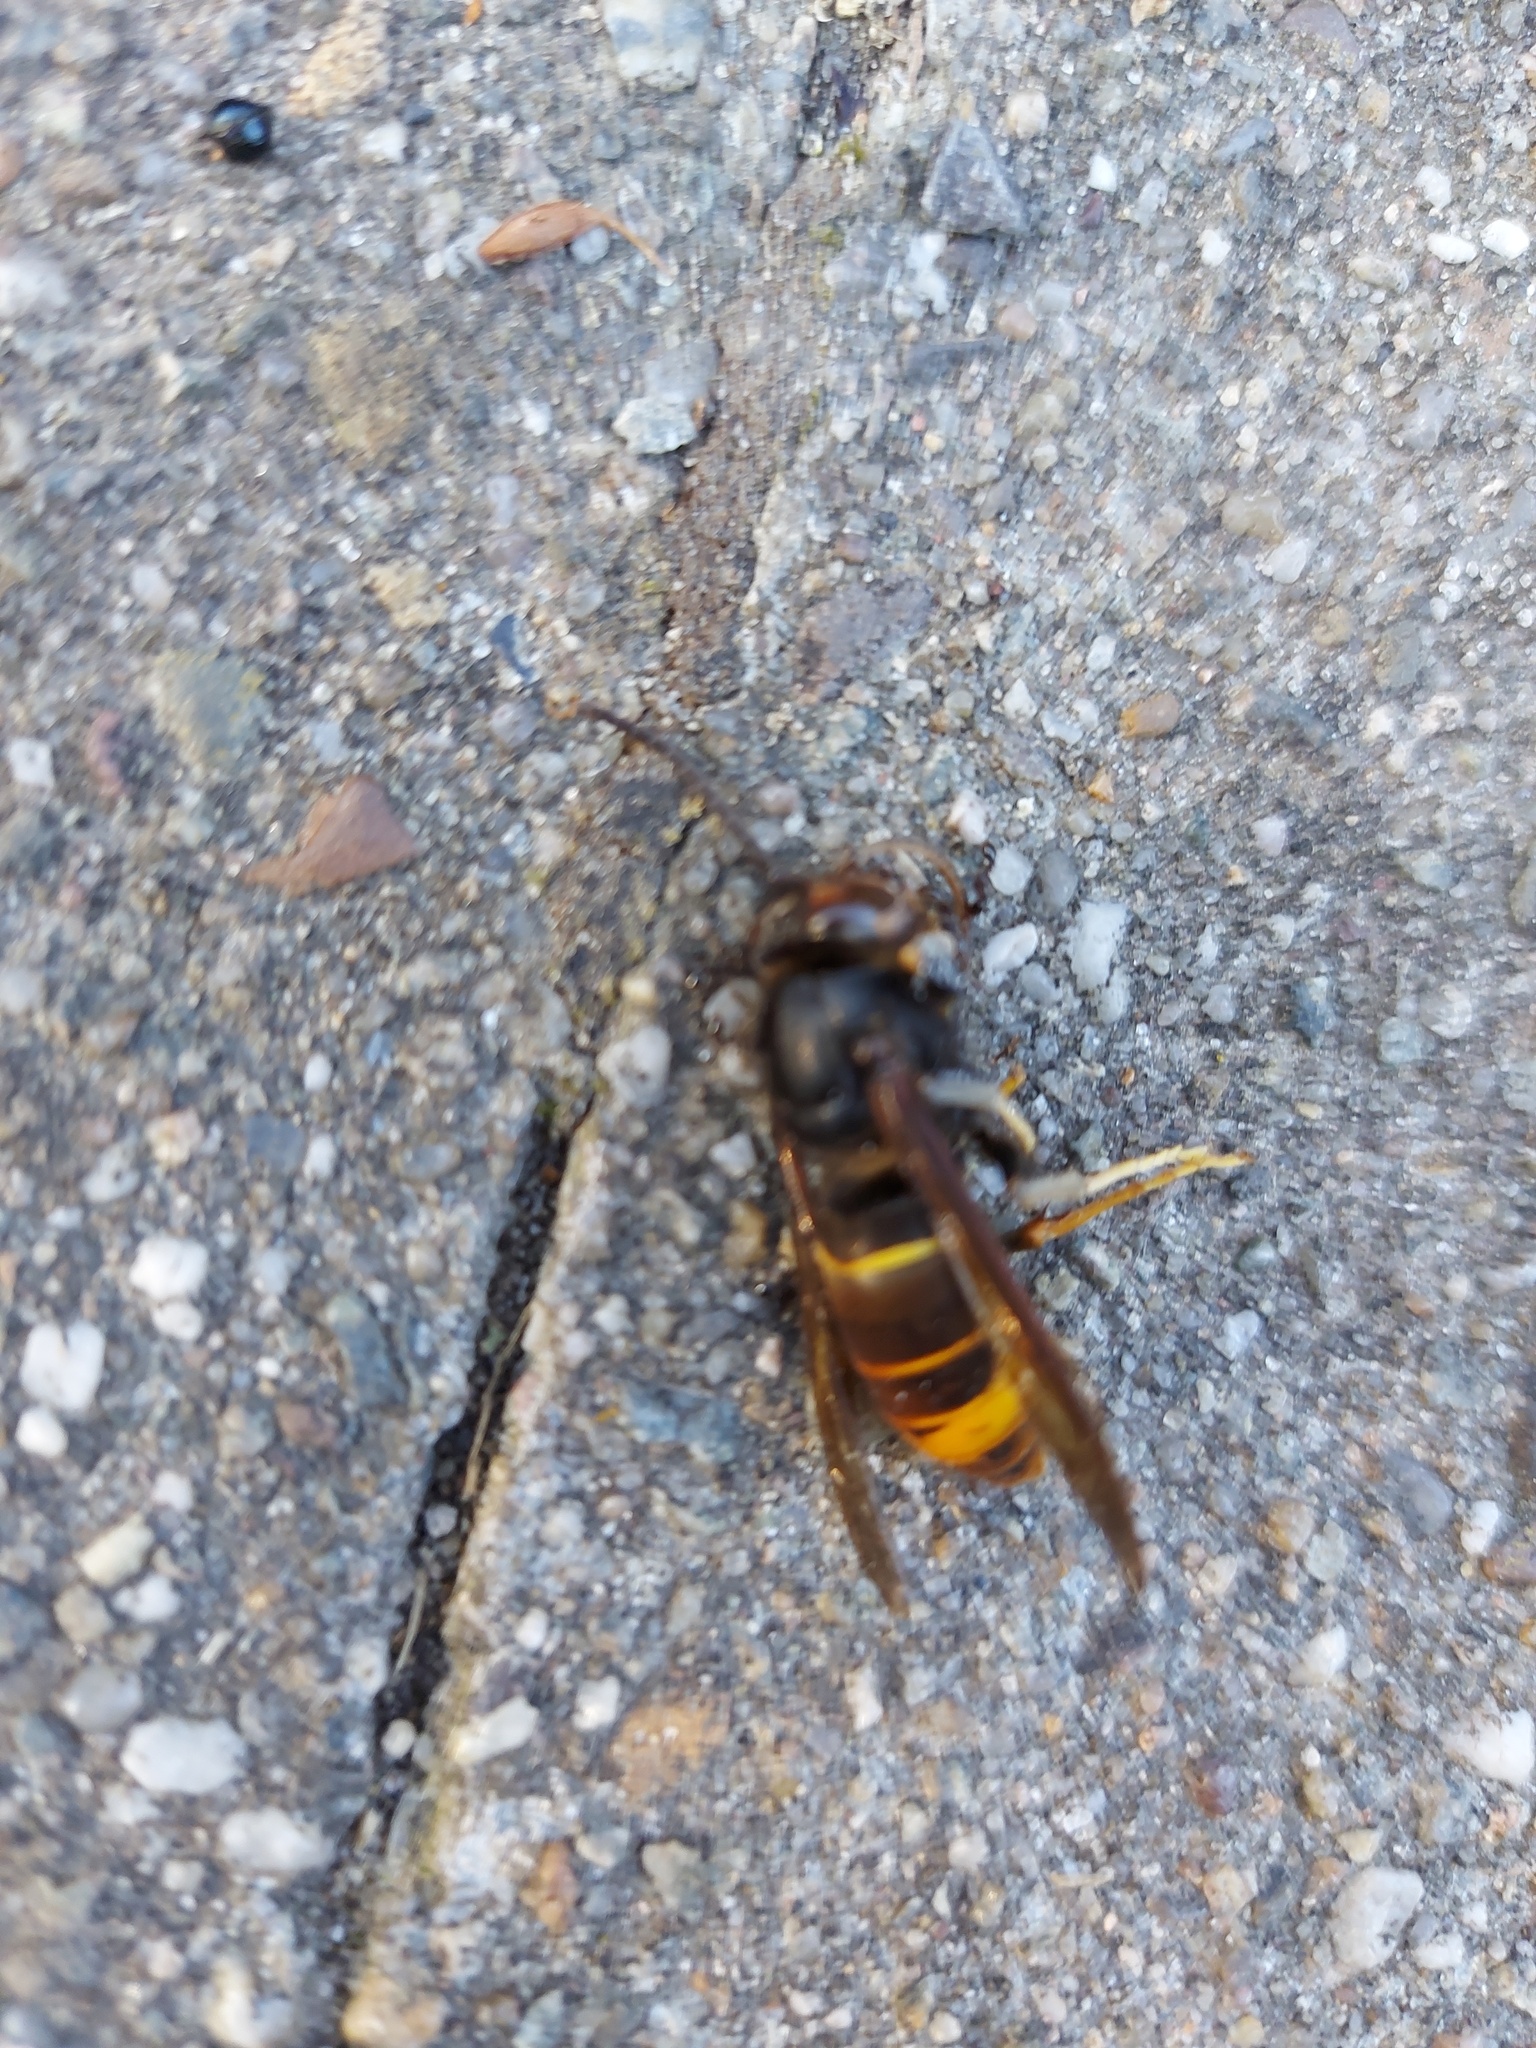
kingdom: Animalia
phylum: Arthropoda
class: Insecta
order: Hymenoptera
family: Vespidae
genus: Vespa
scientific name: Vespa velutina
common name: Asian hornet
